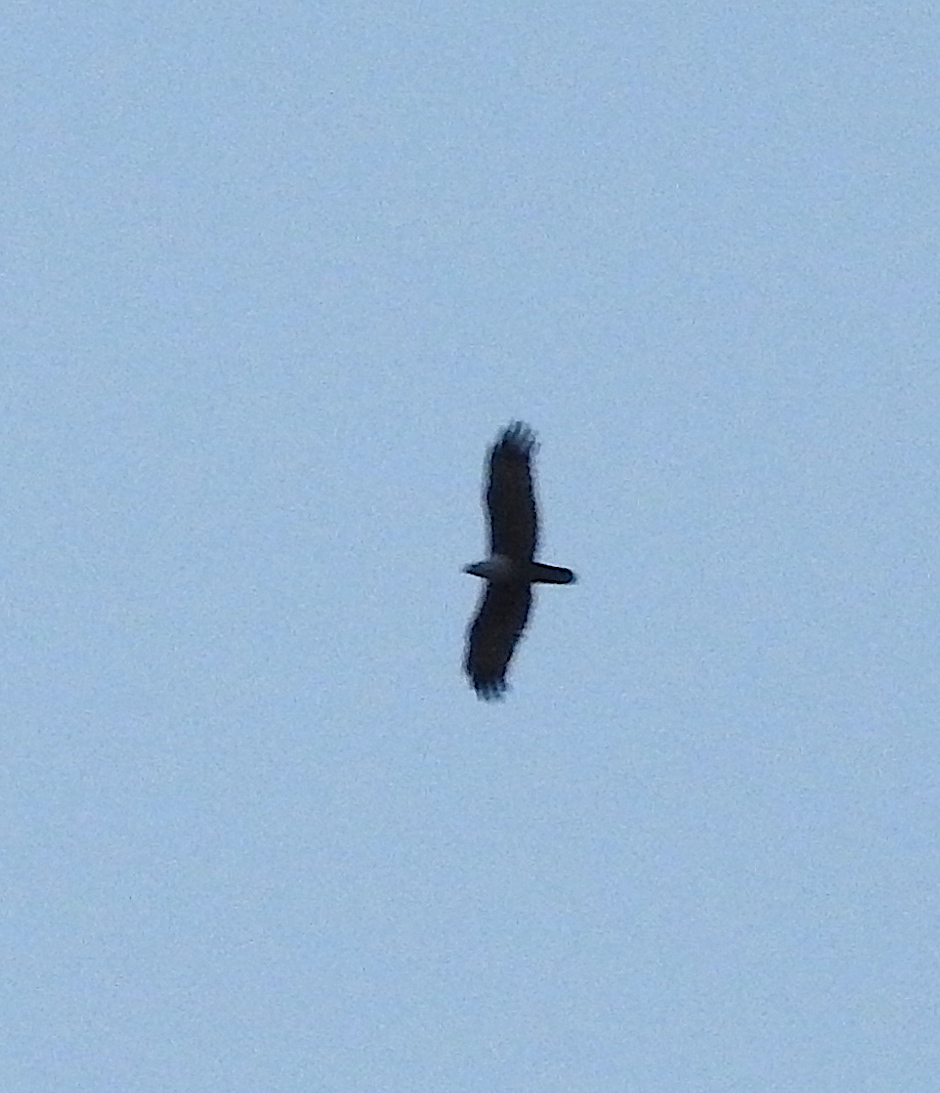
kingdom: Animalia
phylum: Chordata
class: Aves
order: Accipitriformes
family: Accipitridae
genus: Haliastur
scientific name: Haliastur indus
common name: Brahminy kite
